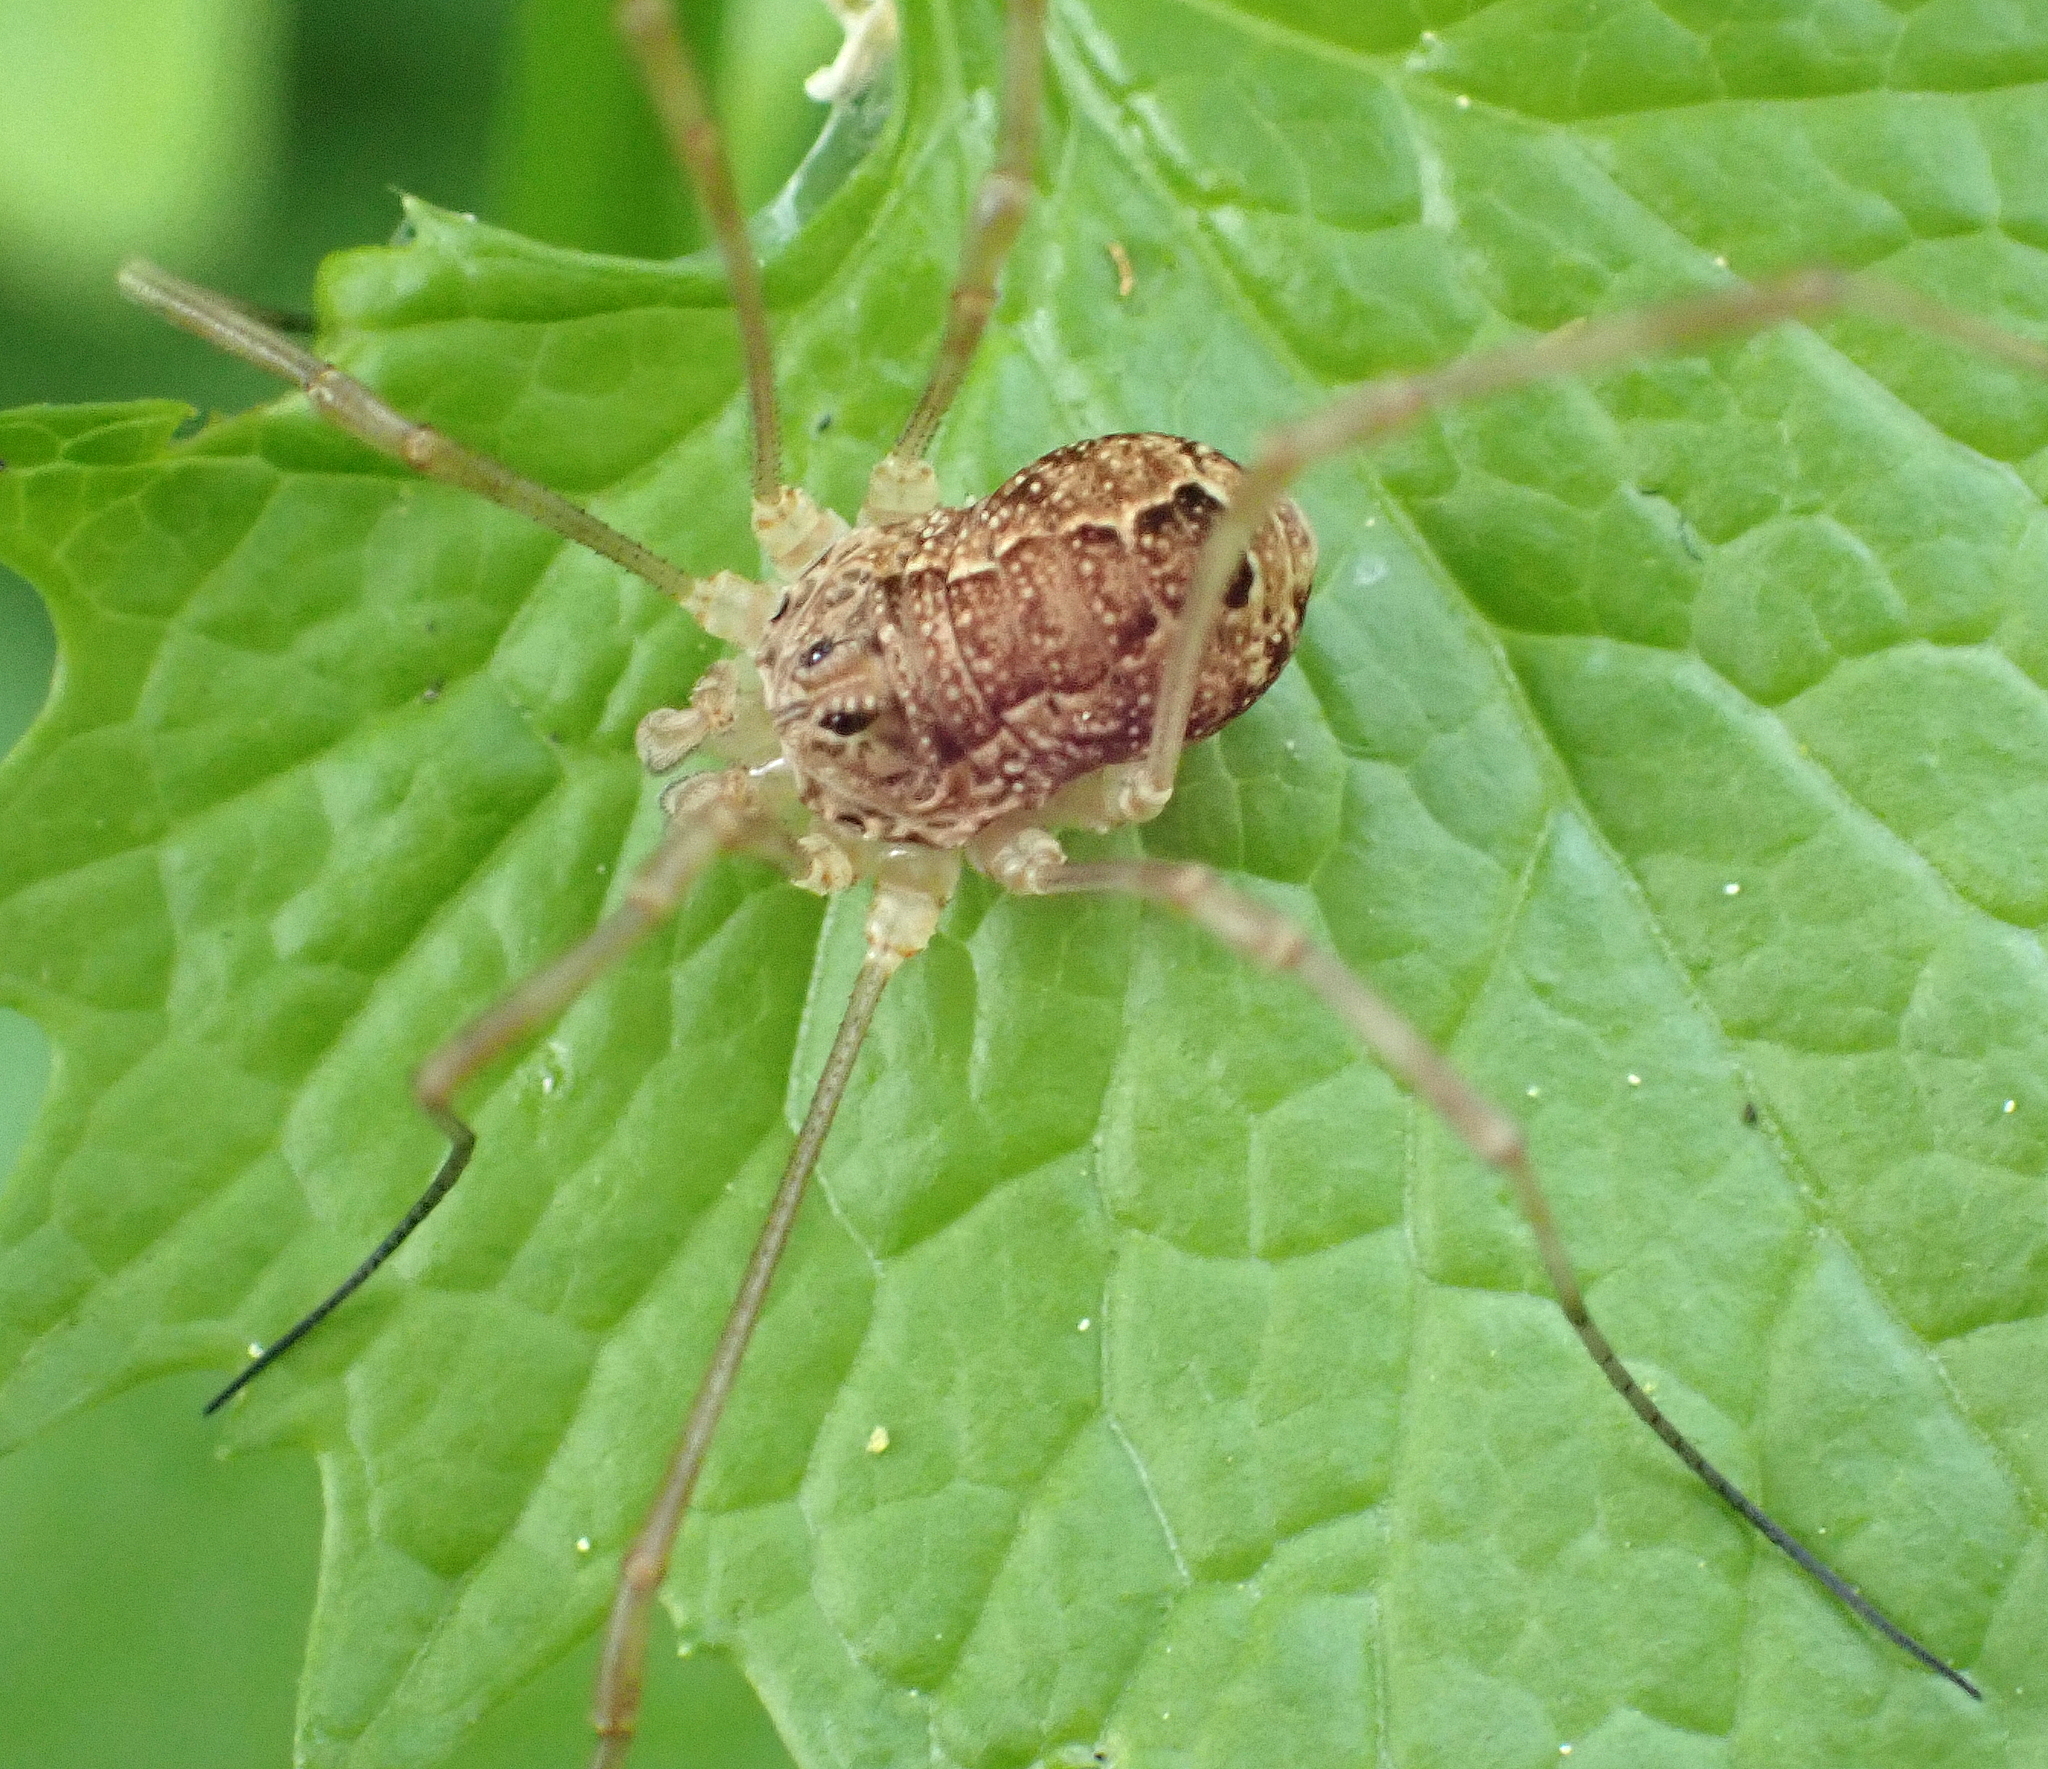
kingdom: Animalia
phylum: Arthropoda
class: Arachnida
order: Opiliones
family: Phalangiidae
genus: Rilaena
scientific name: Rilaena triangularis
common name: Spring harvestman
